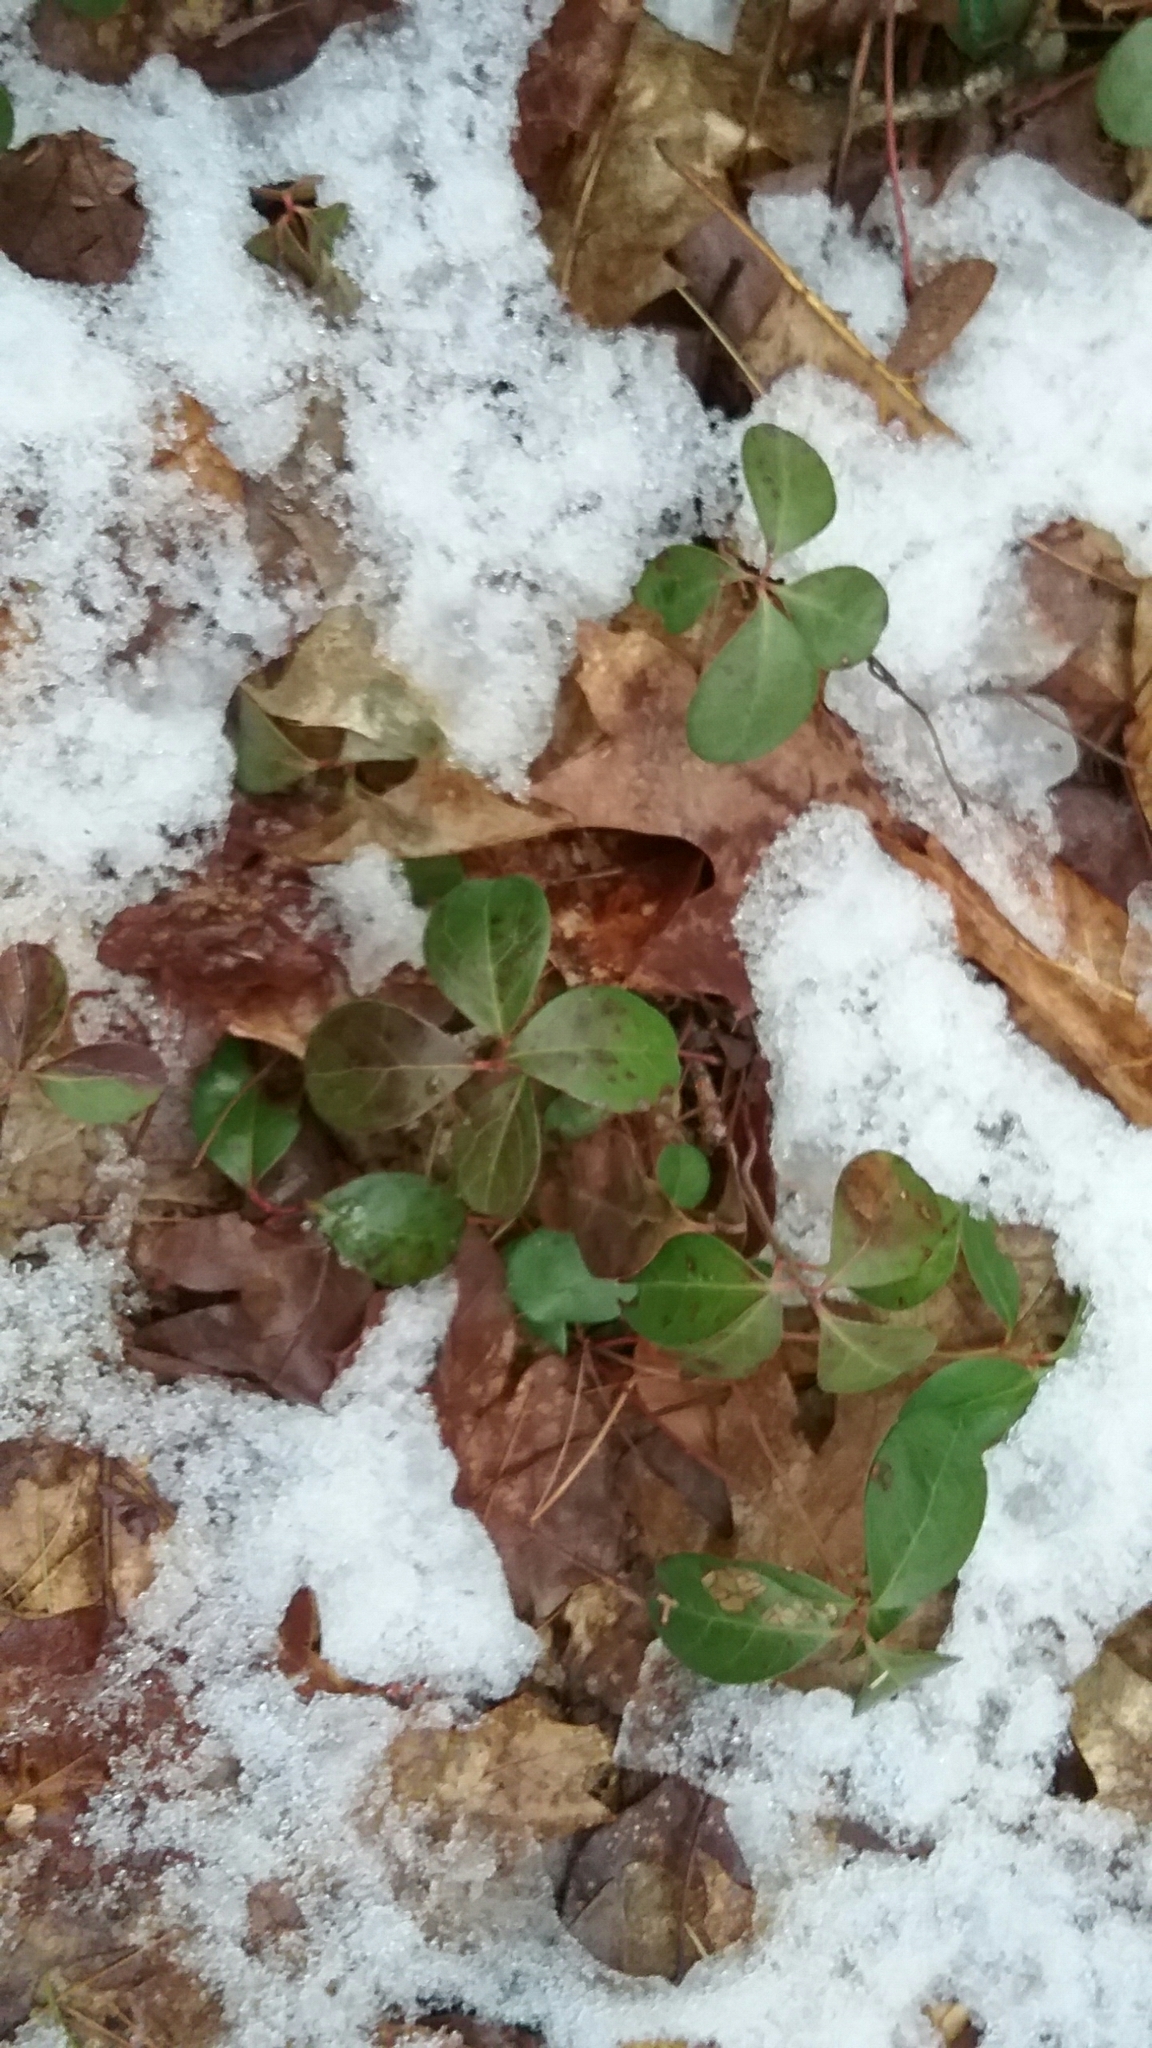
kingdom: Plantae
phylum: Tracheophyta
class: Magnoliopsida
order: Ericales
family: Ericaceae
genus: Gaultheria
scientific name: Gaultheria procumbens
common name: Checkerberry
